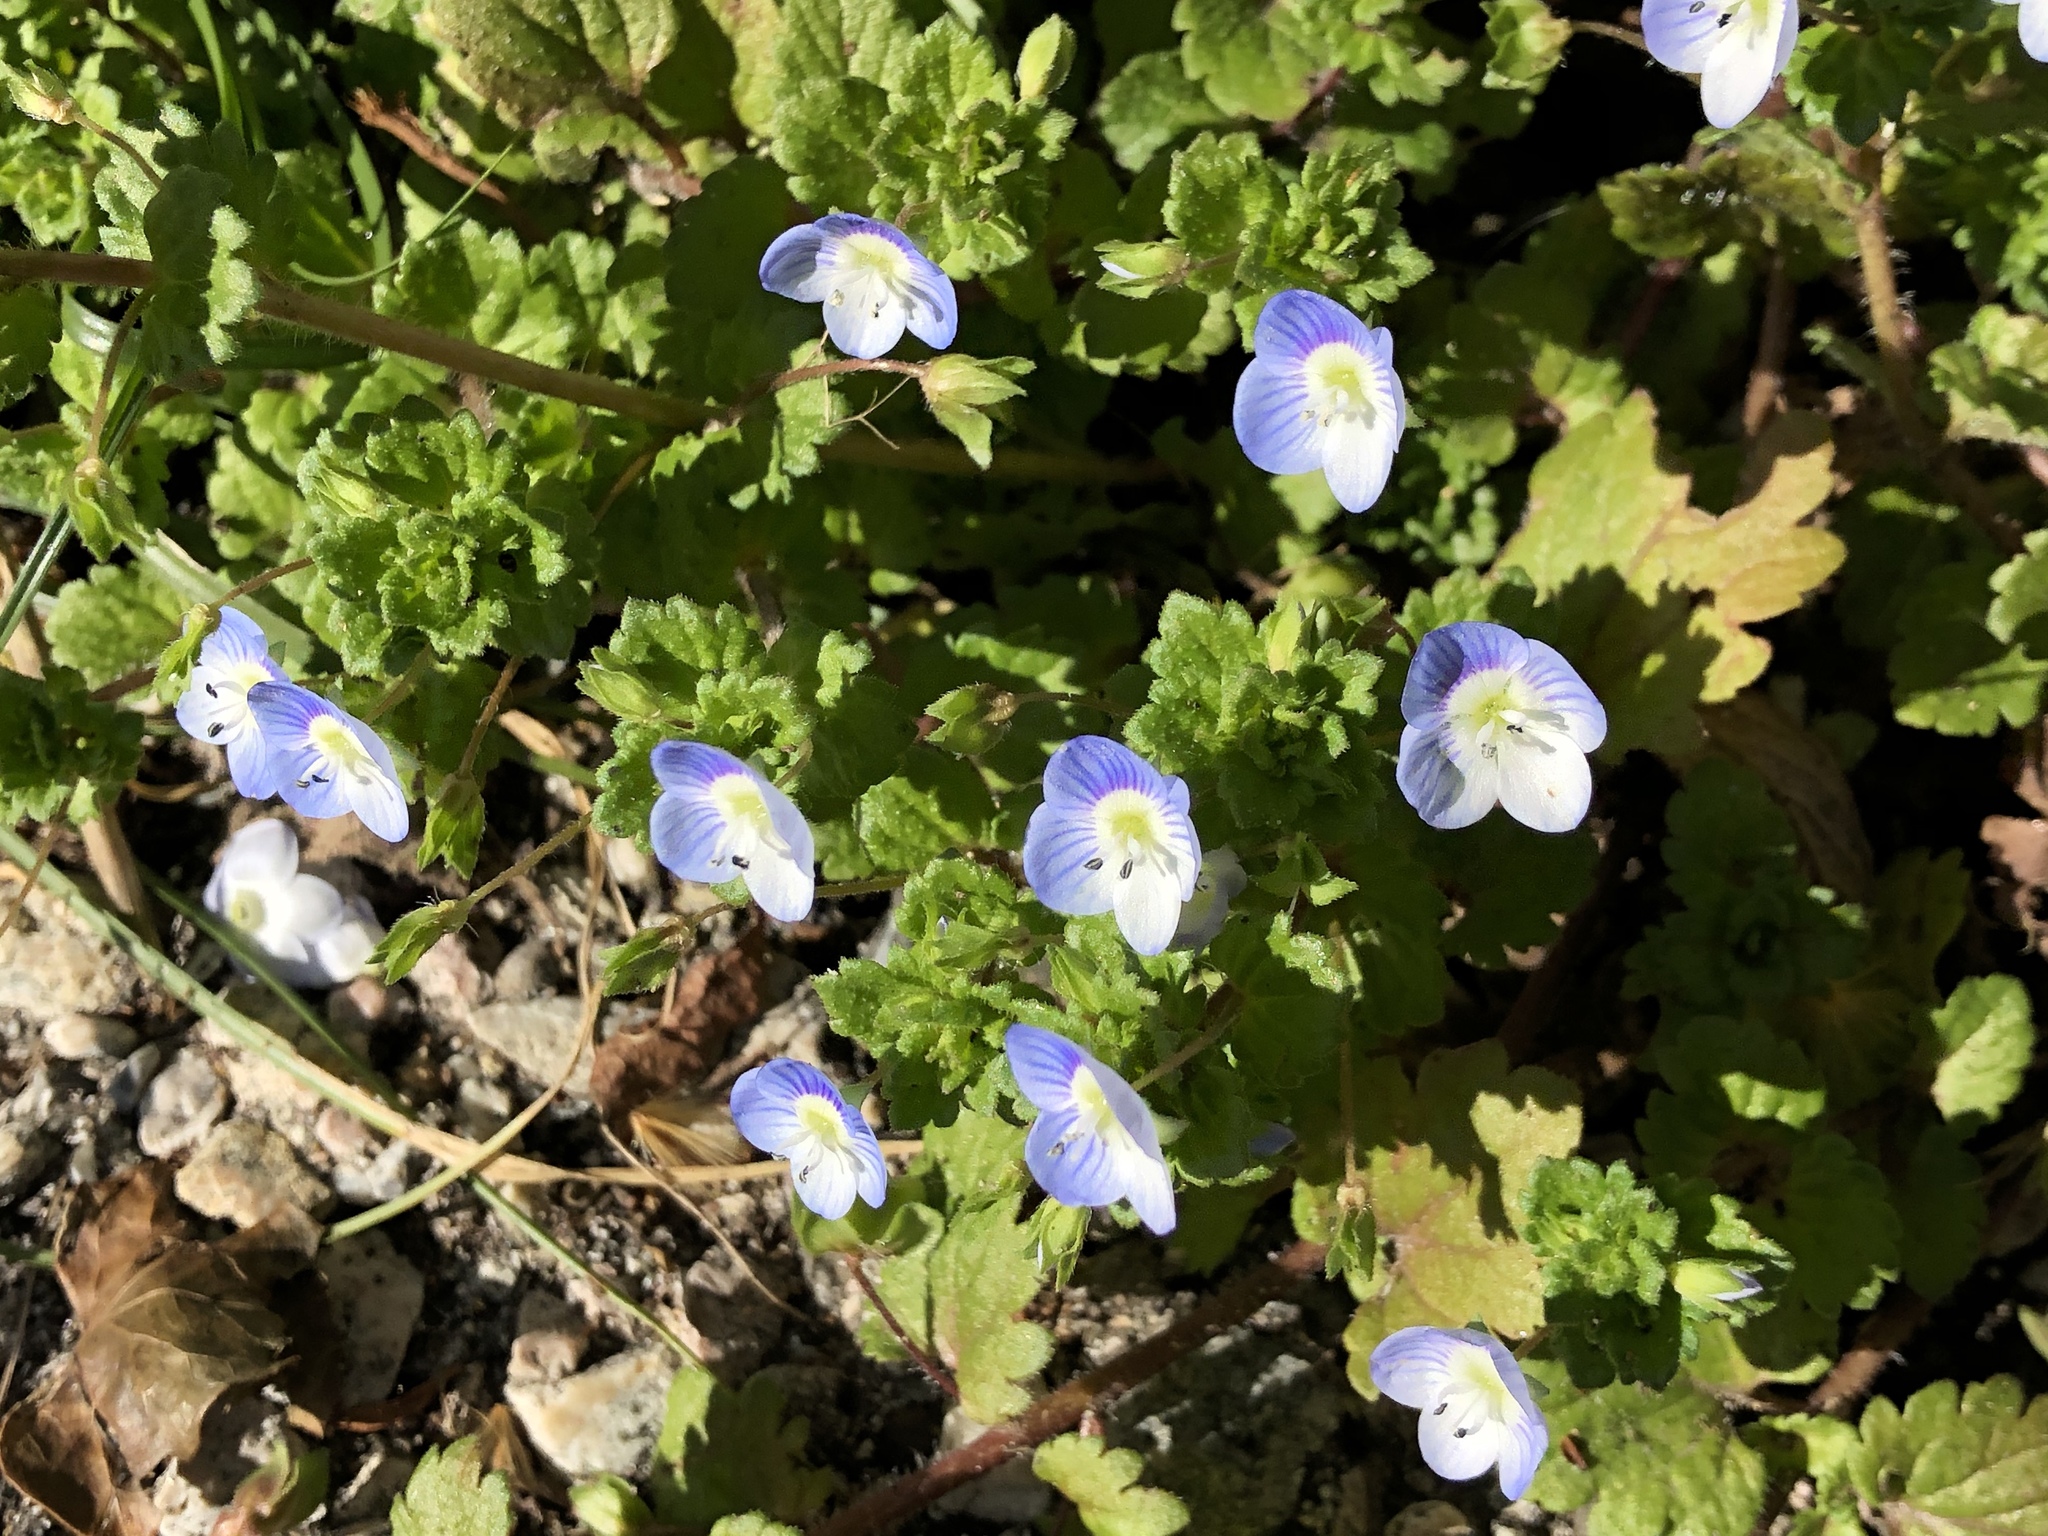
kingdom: Plantae
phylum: Tracheophyta
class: Magnoliopsida
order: Lamiales
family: Plantaginaceae
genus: Veronica
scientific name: Veronica persica
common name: Common field-speedwell
